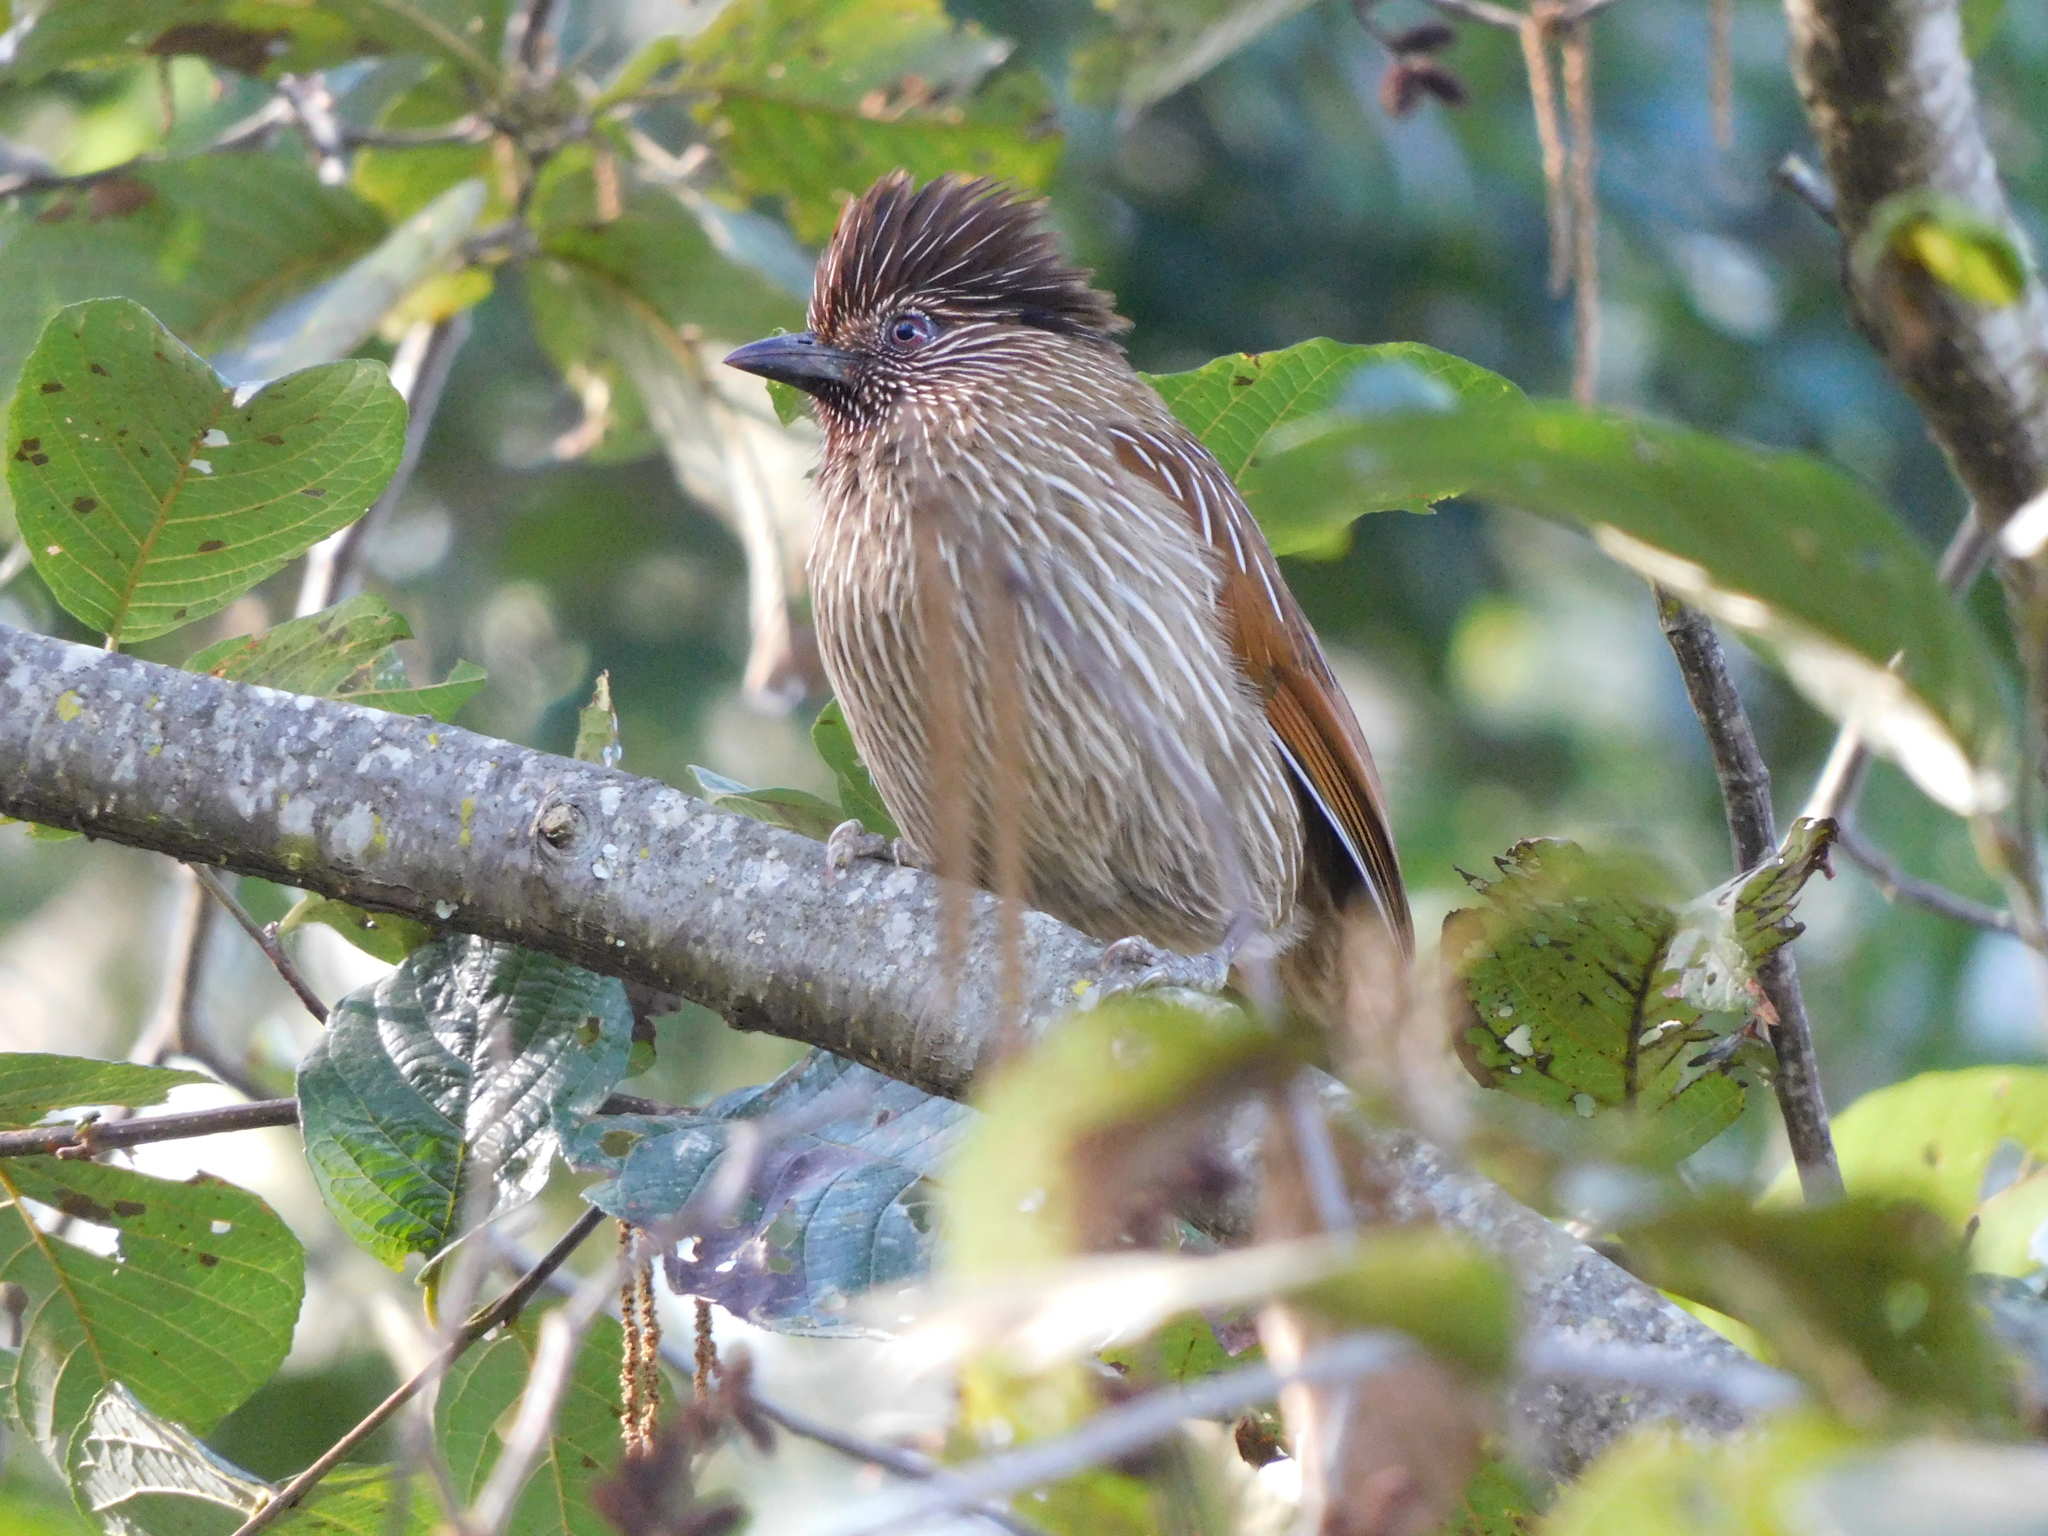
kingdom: Animalia
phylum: Chordata
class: Aves
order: Passeriformes
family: Leiothrichidae
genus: Garrulax
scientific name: Garrulax striatus
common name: Striated laughingthrush
